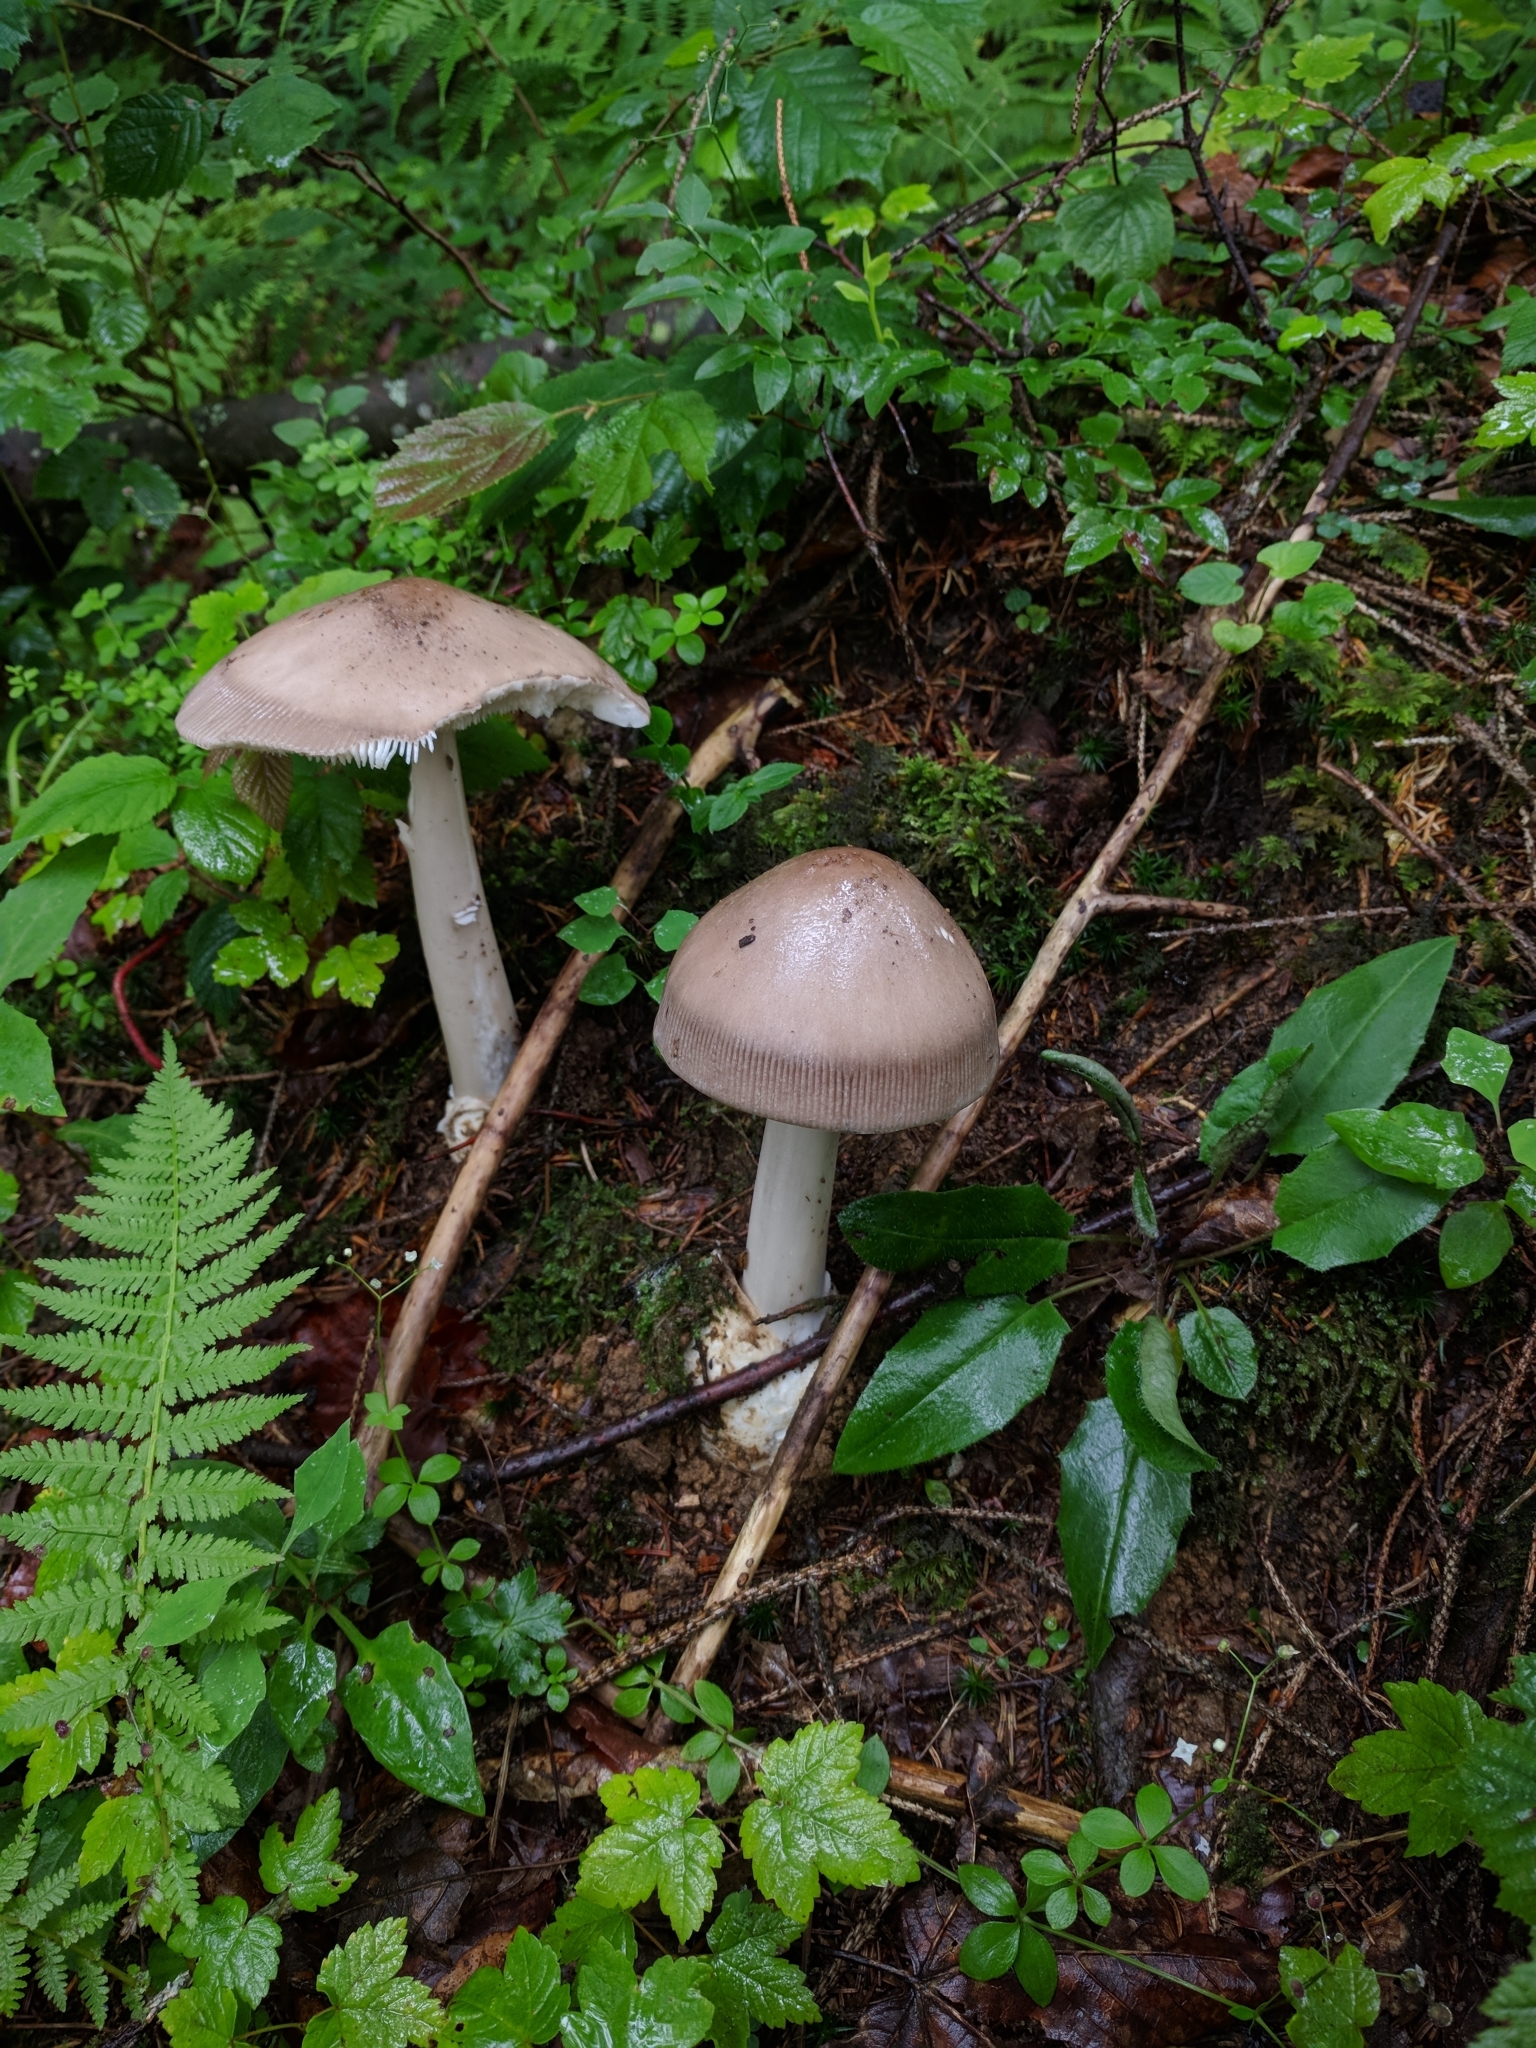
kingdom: Fungi
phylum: Basidiomycota
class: Agaricomycetes
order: Agaricales
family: Amanitaceae
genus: Amanita
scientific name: Amanita battarrae
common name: Banded amanita
